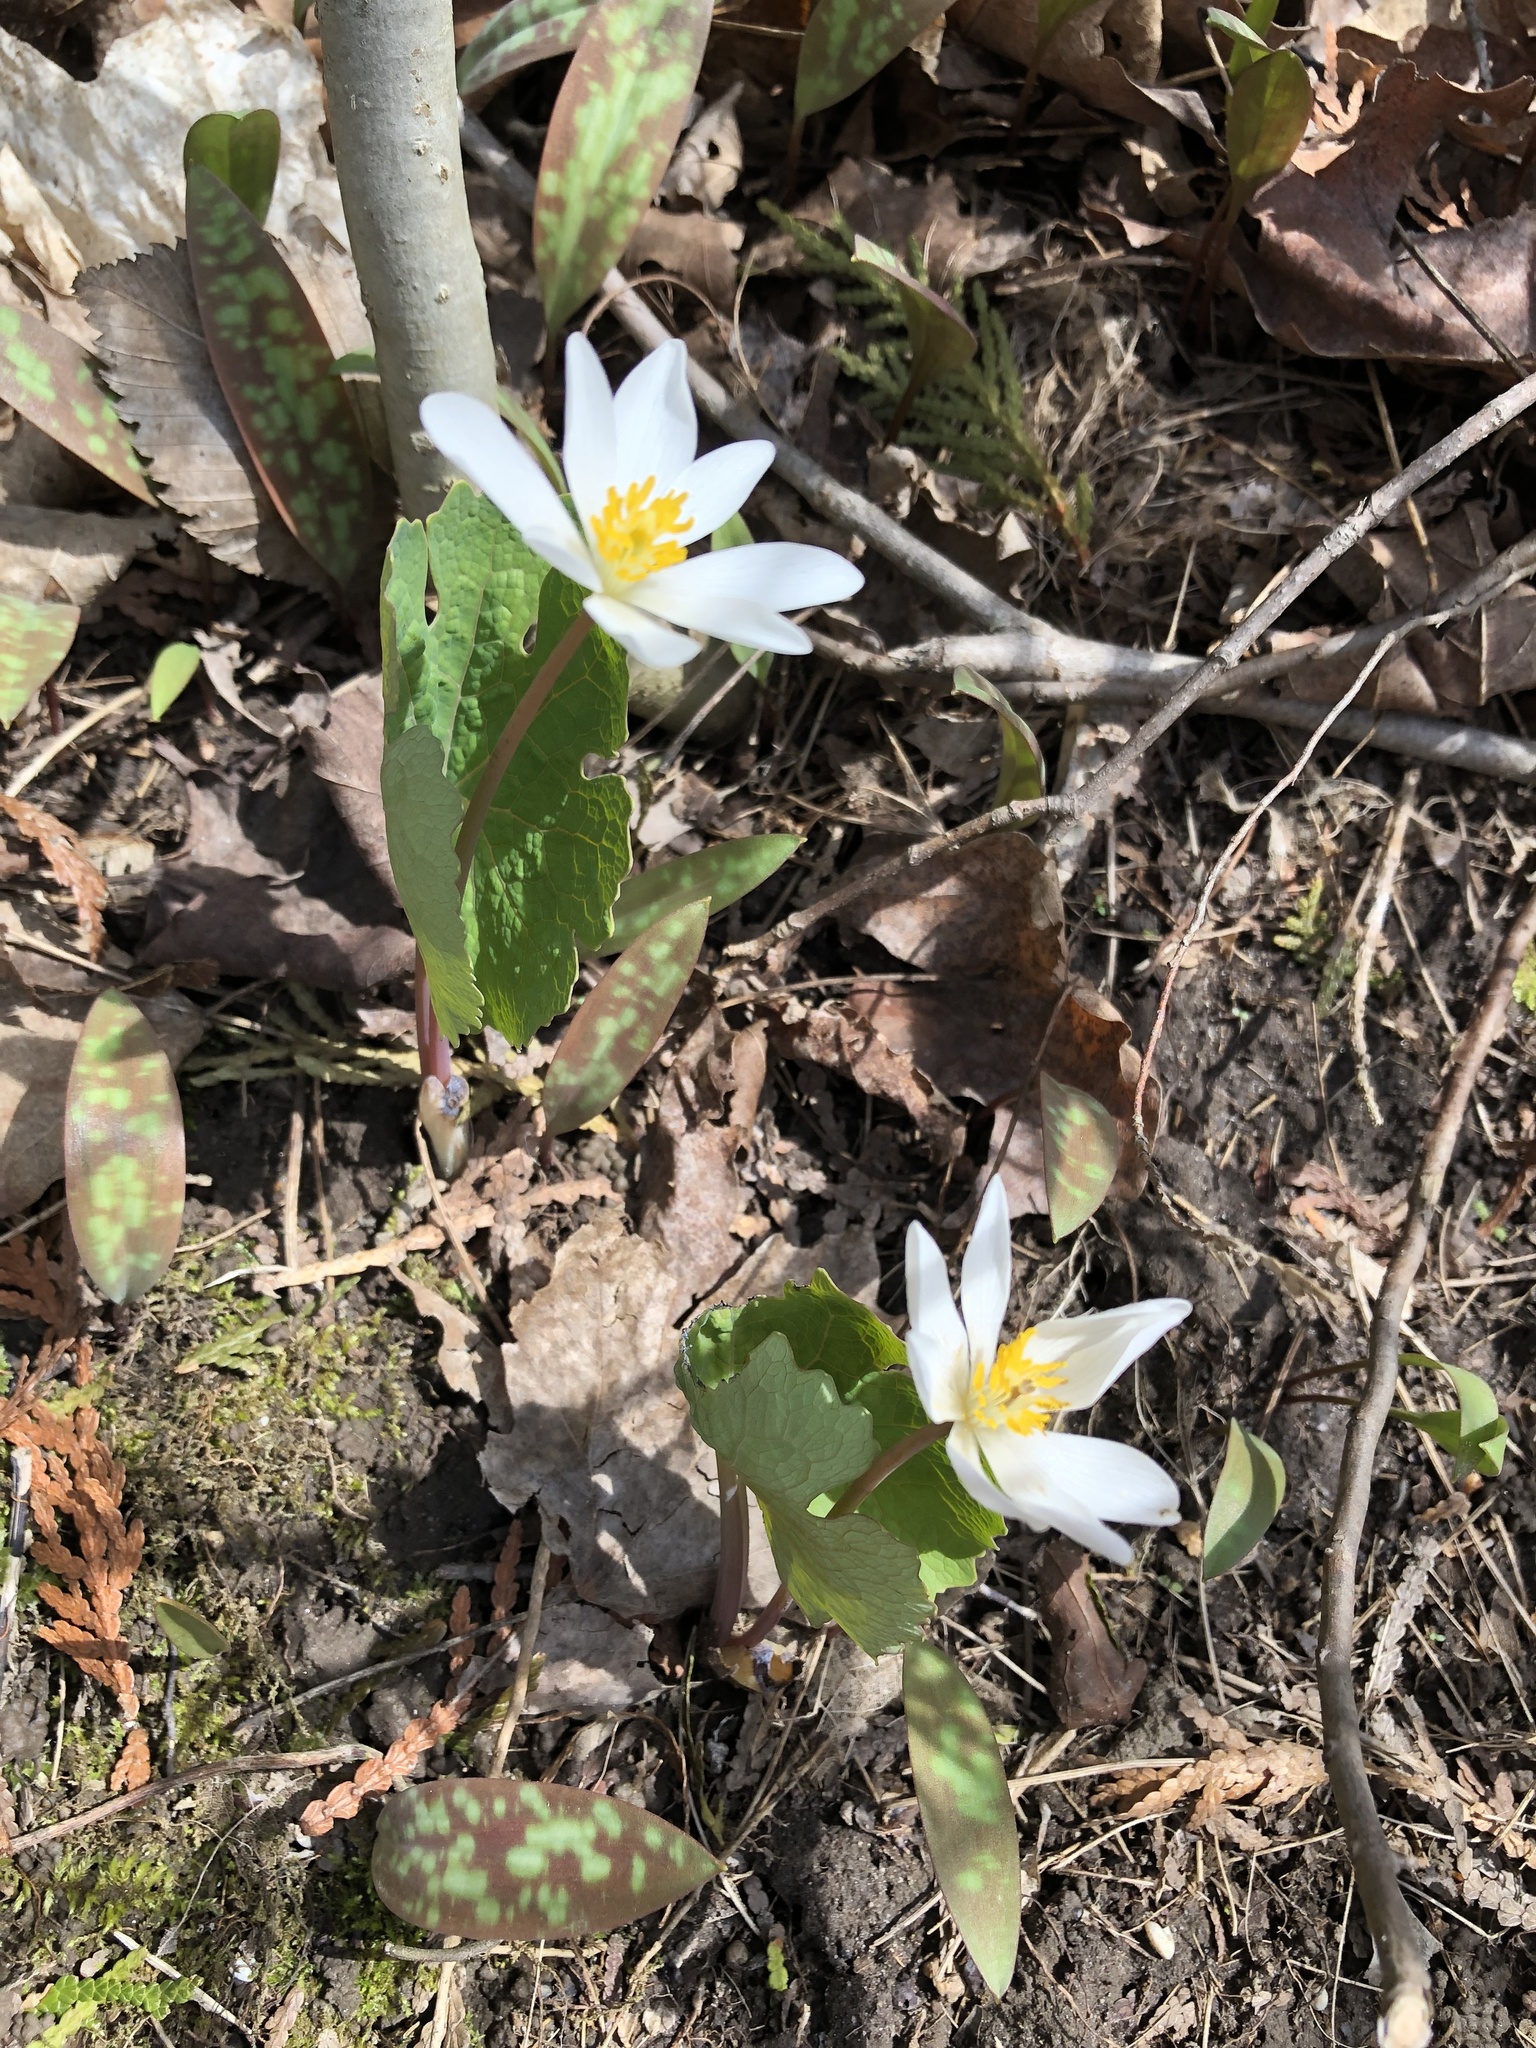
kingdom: Plantae
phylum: Tracheophyta
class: Magnoliopsida
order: Ranunculales
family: Papaveraceae
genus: Sanguinaria
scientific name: Sanguinaria canadensis
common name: Bloodroot
